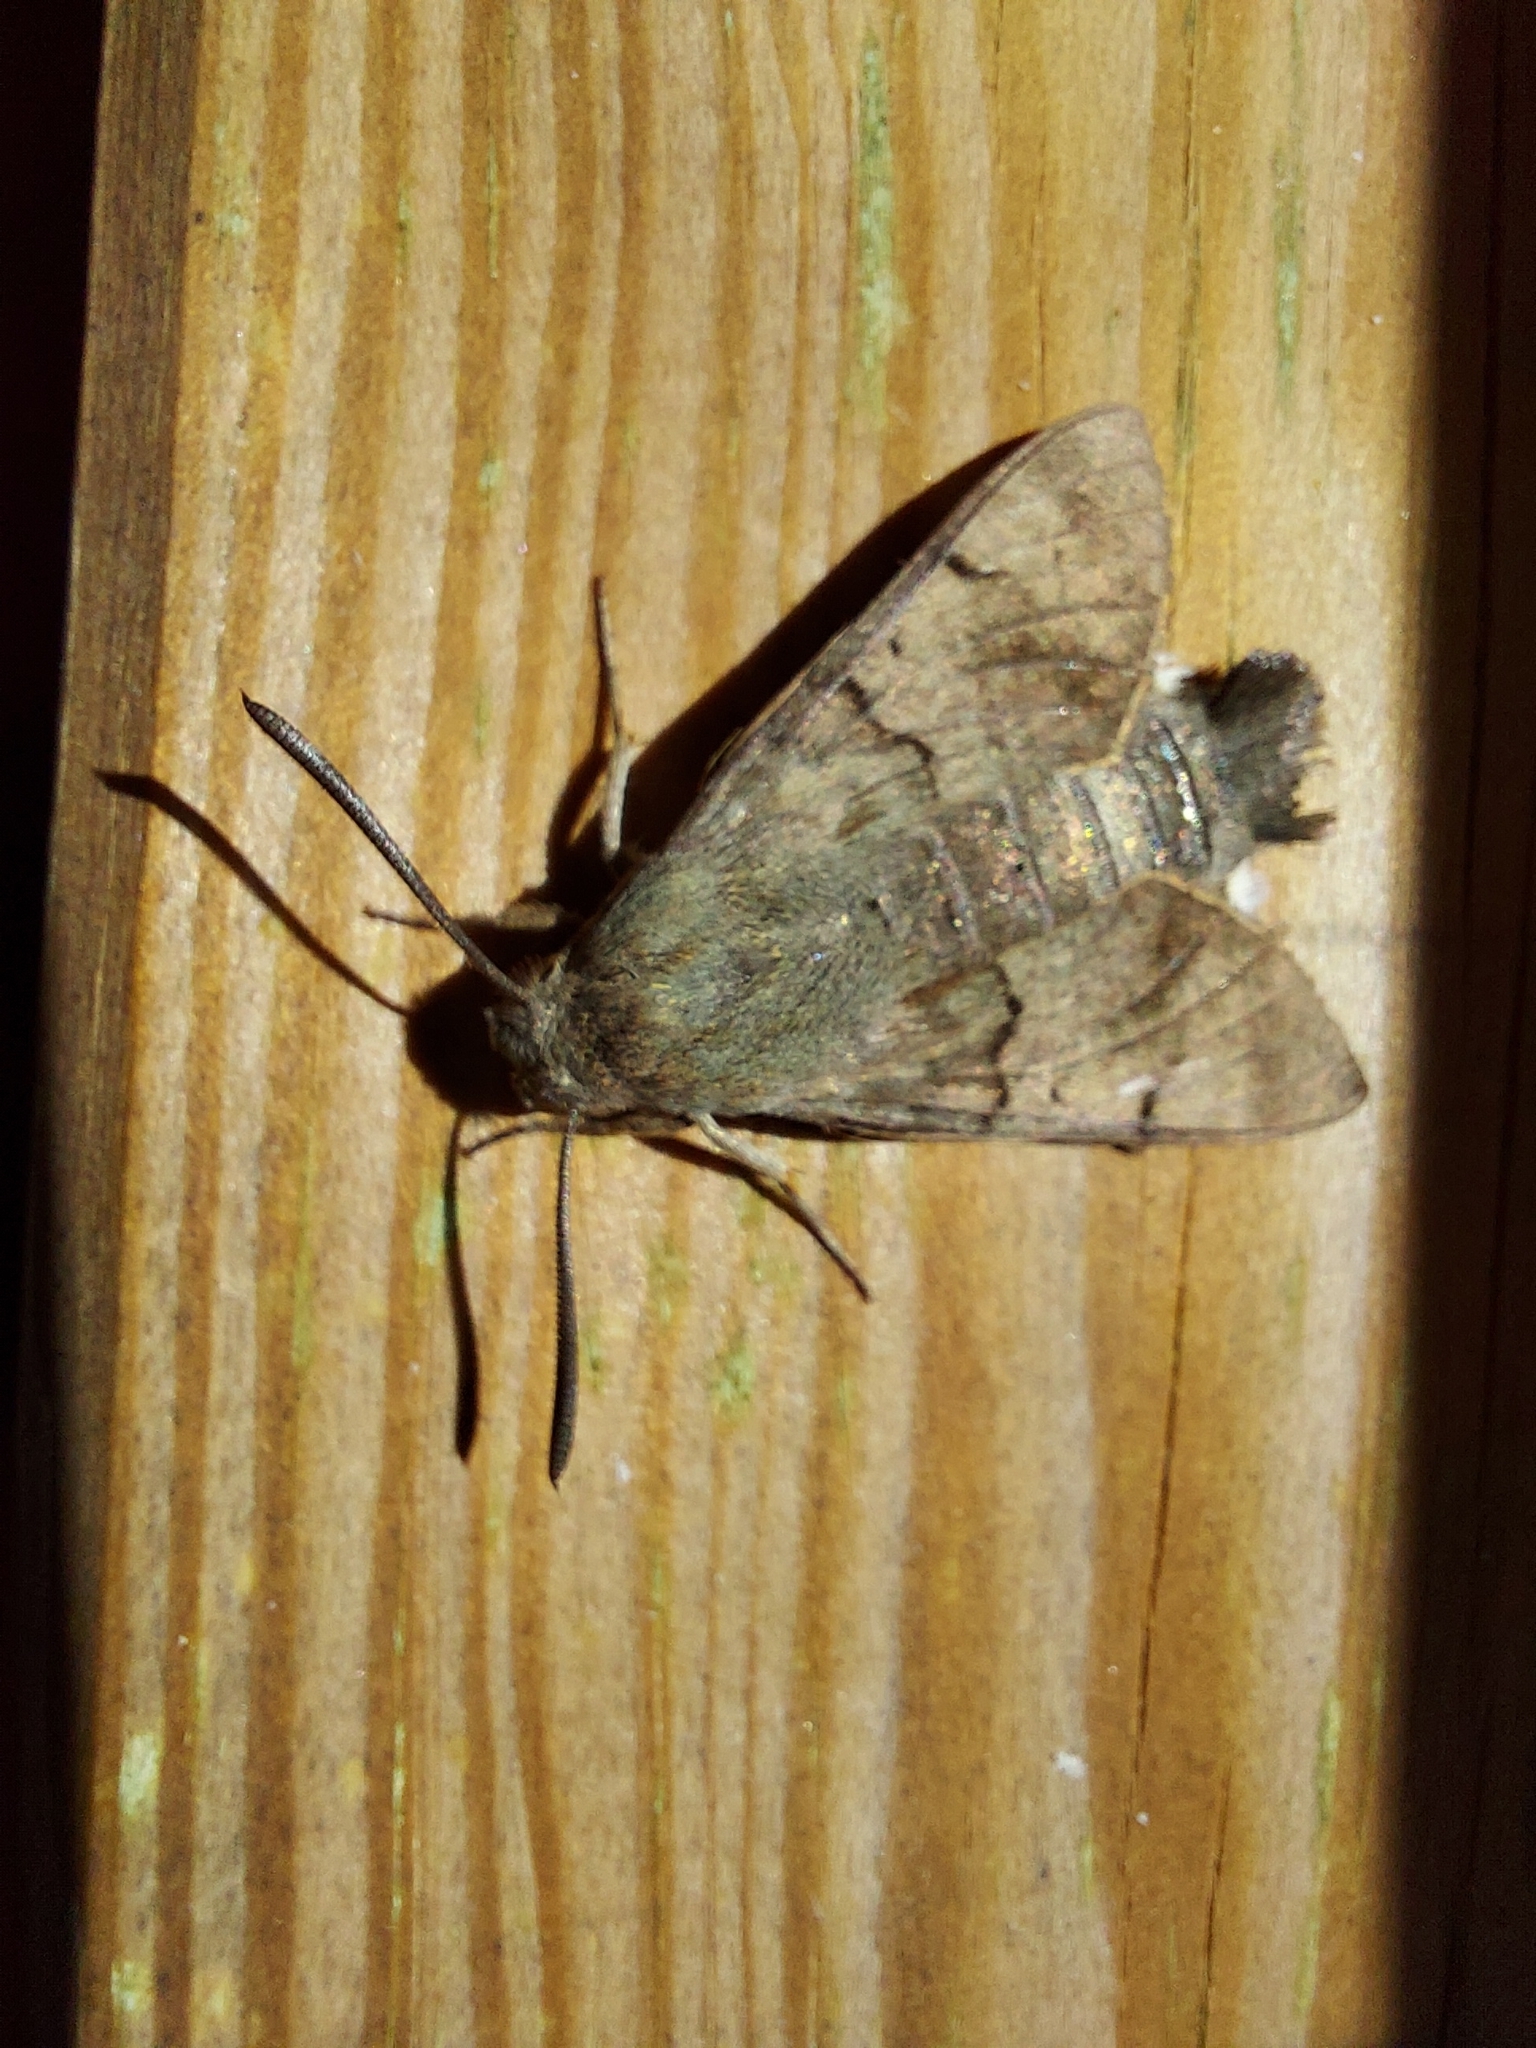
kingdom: Animalia
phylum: Arthropoda
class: Insecta
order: Lepidoptera
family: Sphingidae
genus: Macroglossum
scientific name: Macroglossum stellatarum
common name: Humming-bird hawk-moth
